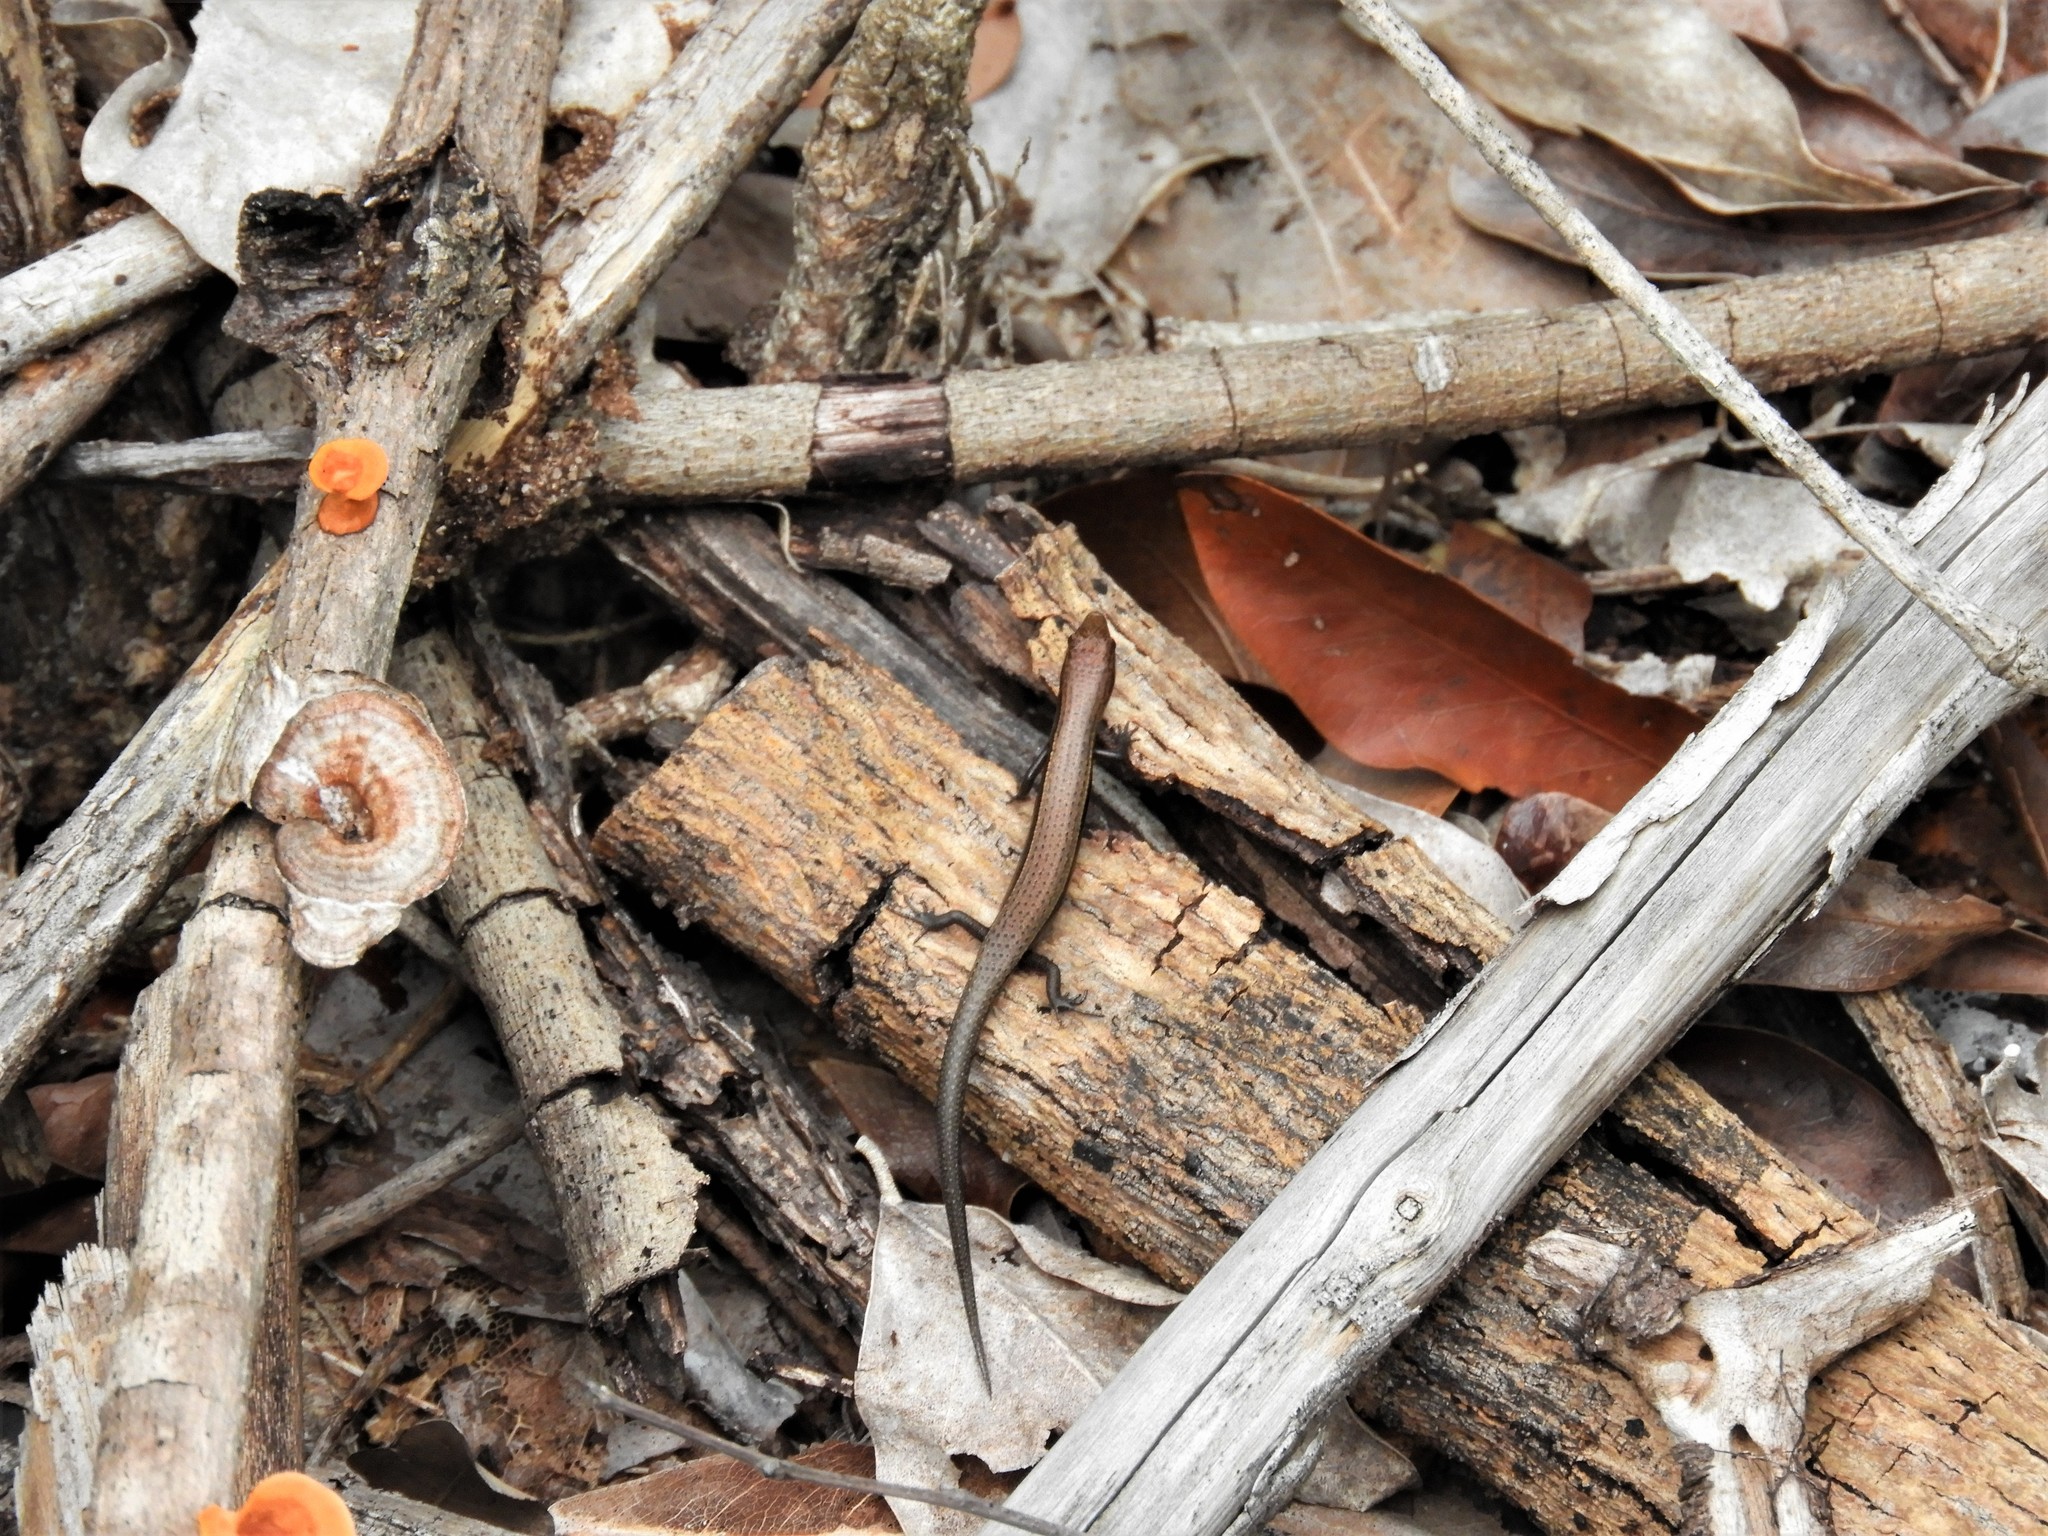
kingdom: Animalia
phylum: Chordata
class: Squamata
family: Scincidae
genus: Panaspis
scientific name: Panaspis wahlbergii
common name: Angolan snake-eyed skink
